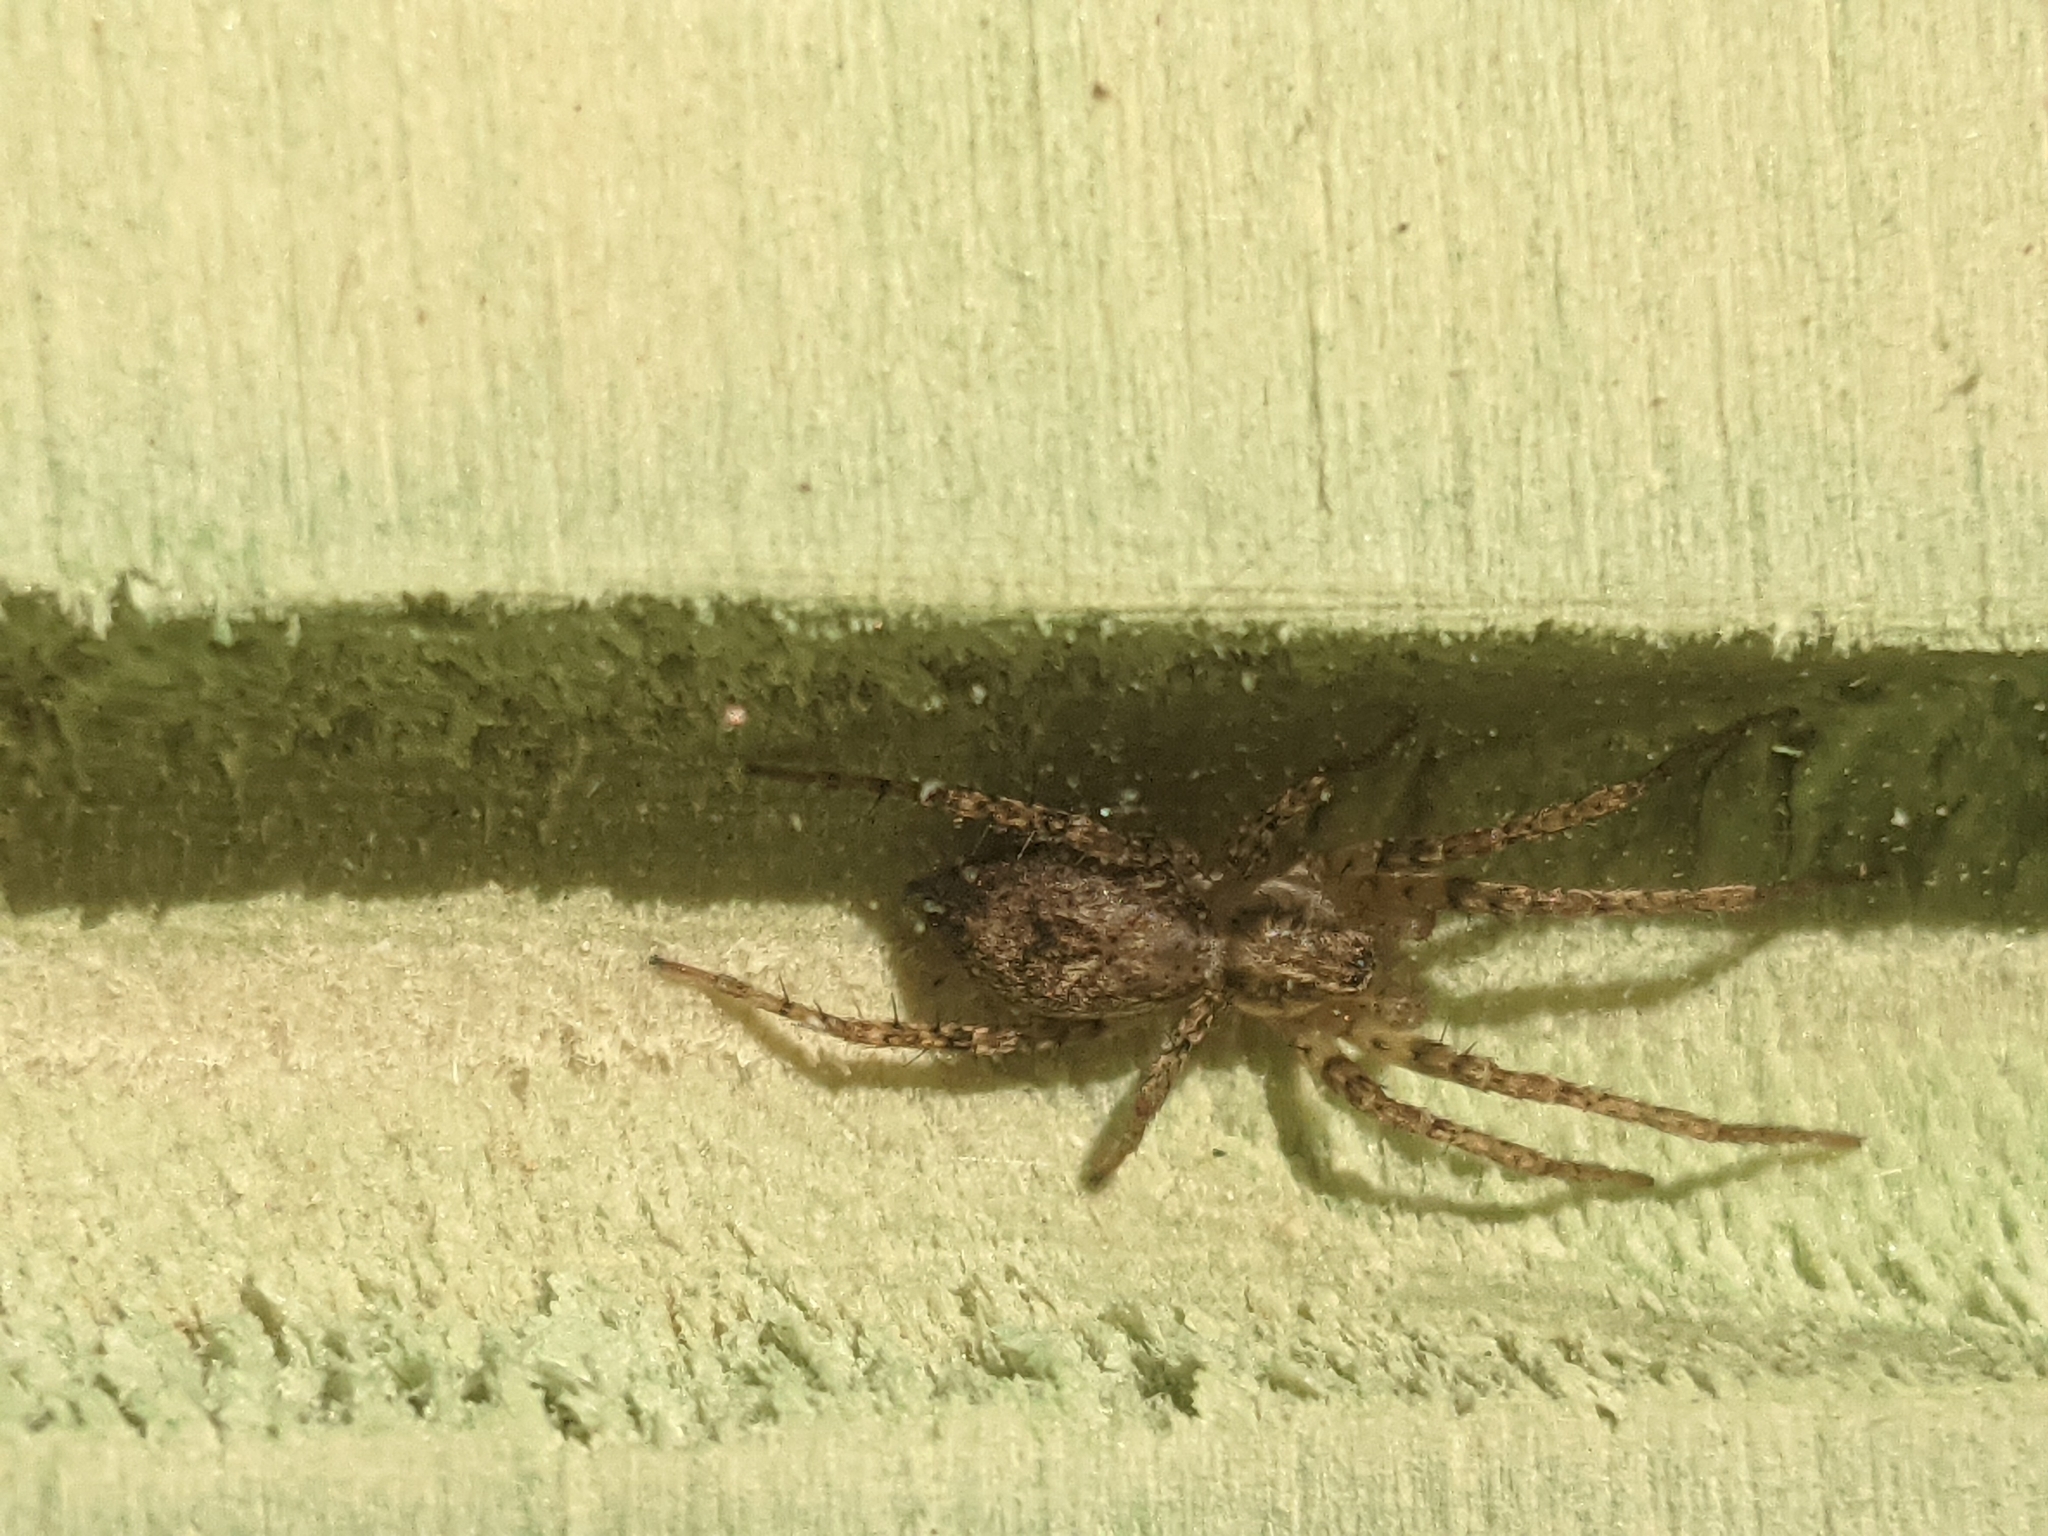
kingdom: Animalia
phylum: Arthropoda
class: Arachnida
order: Araneae
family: Anyphaenidae
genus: Anyphaena
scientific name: Anyphaena accentuata
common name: Buzzing spider
